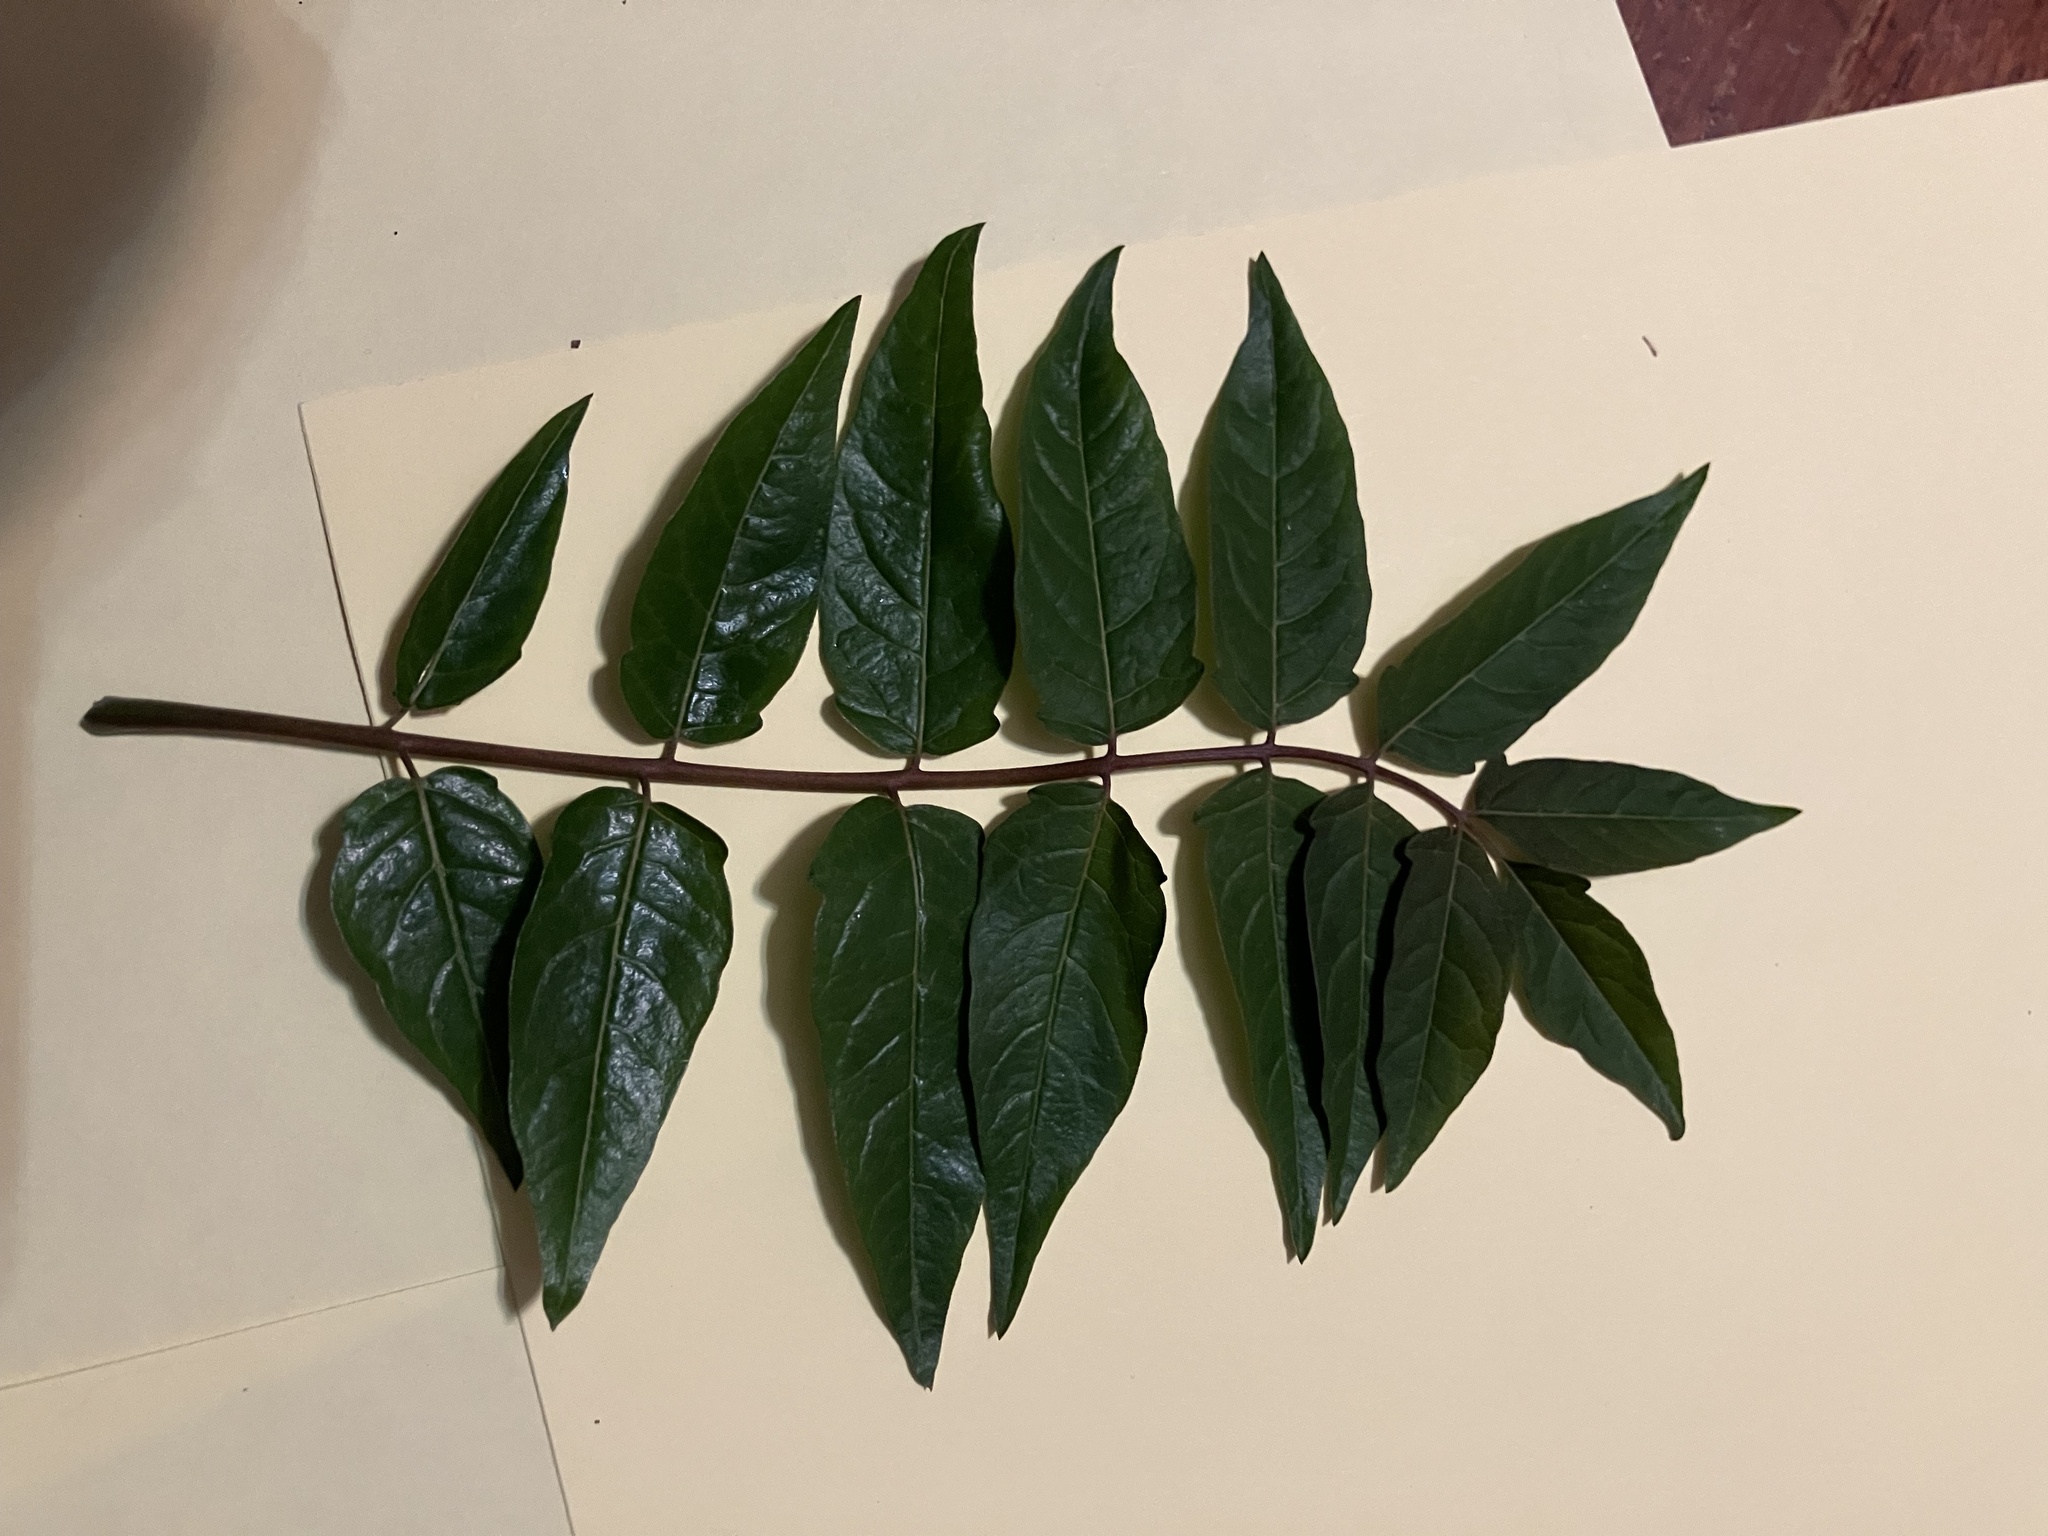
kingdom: Plantae
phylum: Tracheophyta
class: Magnoliopsida
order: Sapindales
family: Simaroubaceae
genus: Ailanthus
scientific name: Ailanthus altissima
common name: Tree-of-heaven
